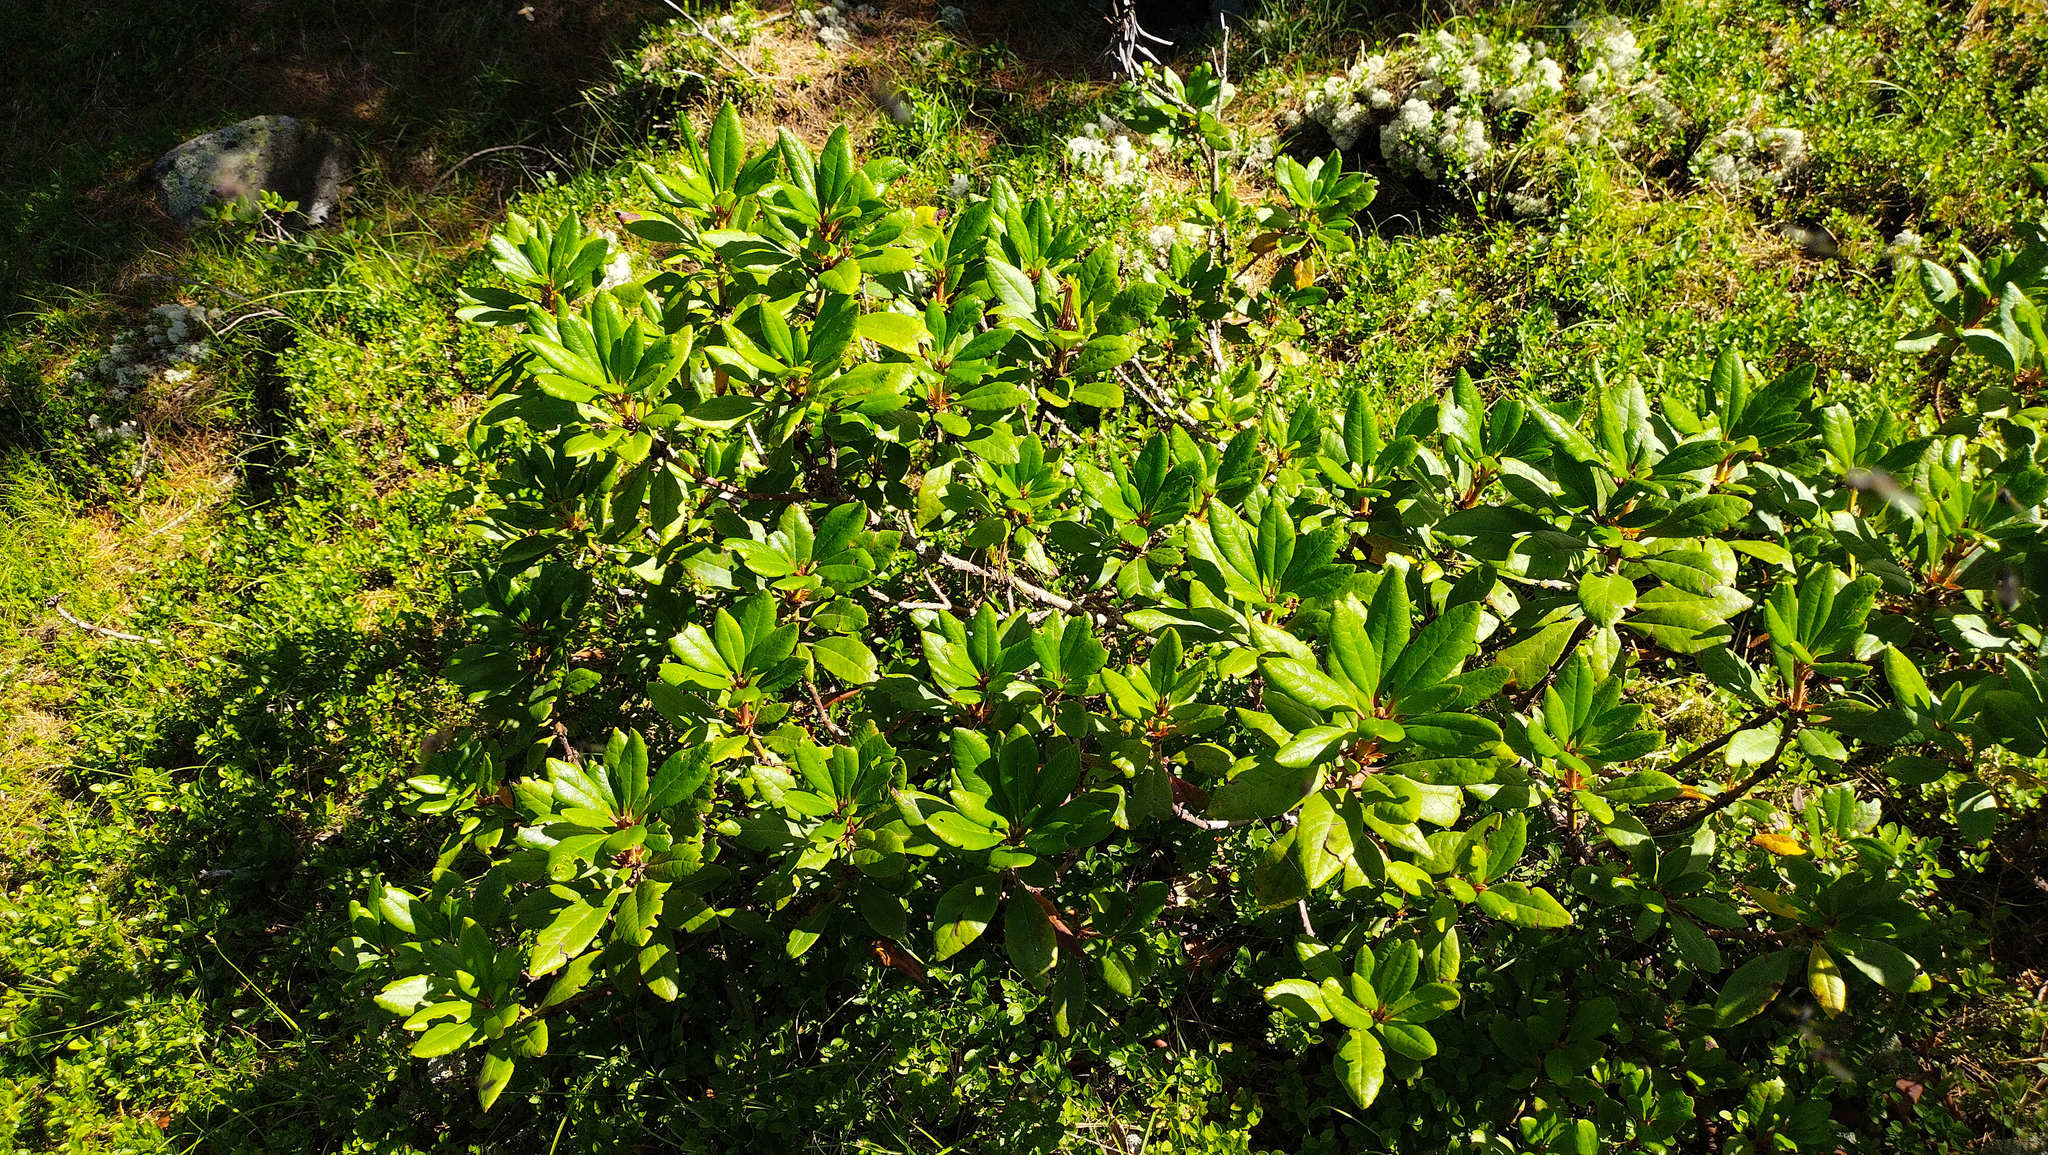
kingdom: Plantae
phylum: Tracheophyta
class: Magnoliopsida
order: Ericales
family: Ericaceae
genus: Rhododendron
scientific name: Rhododendron aureum
